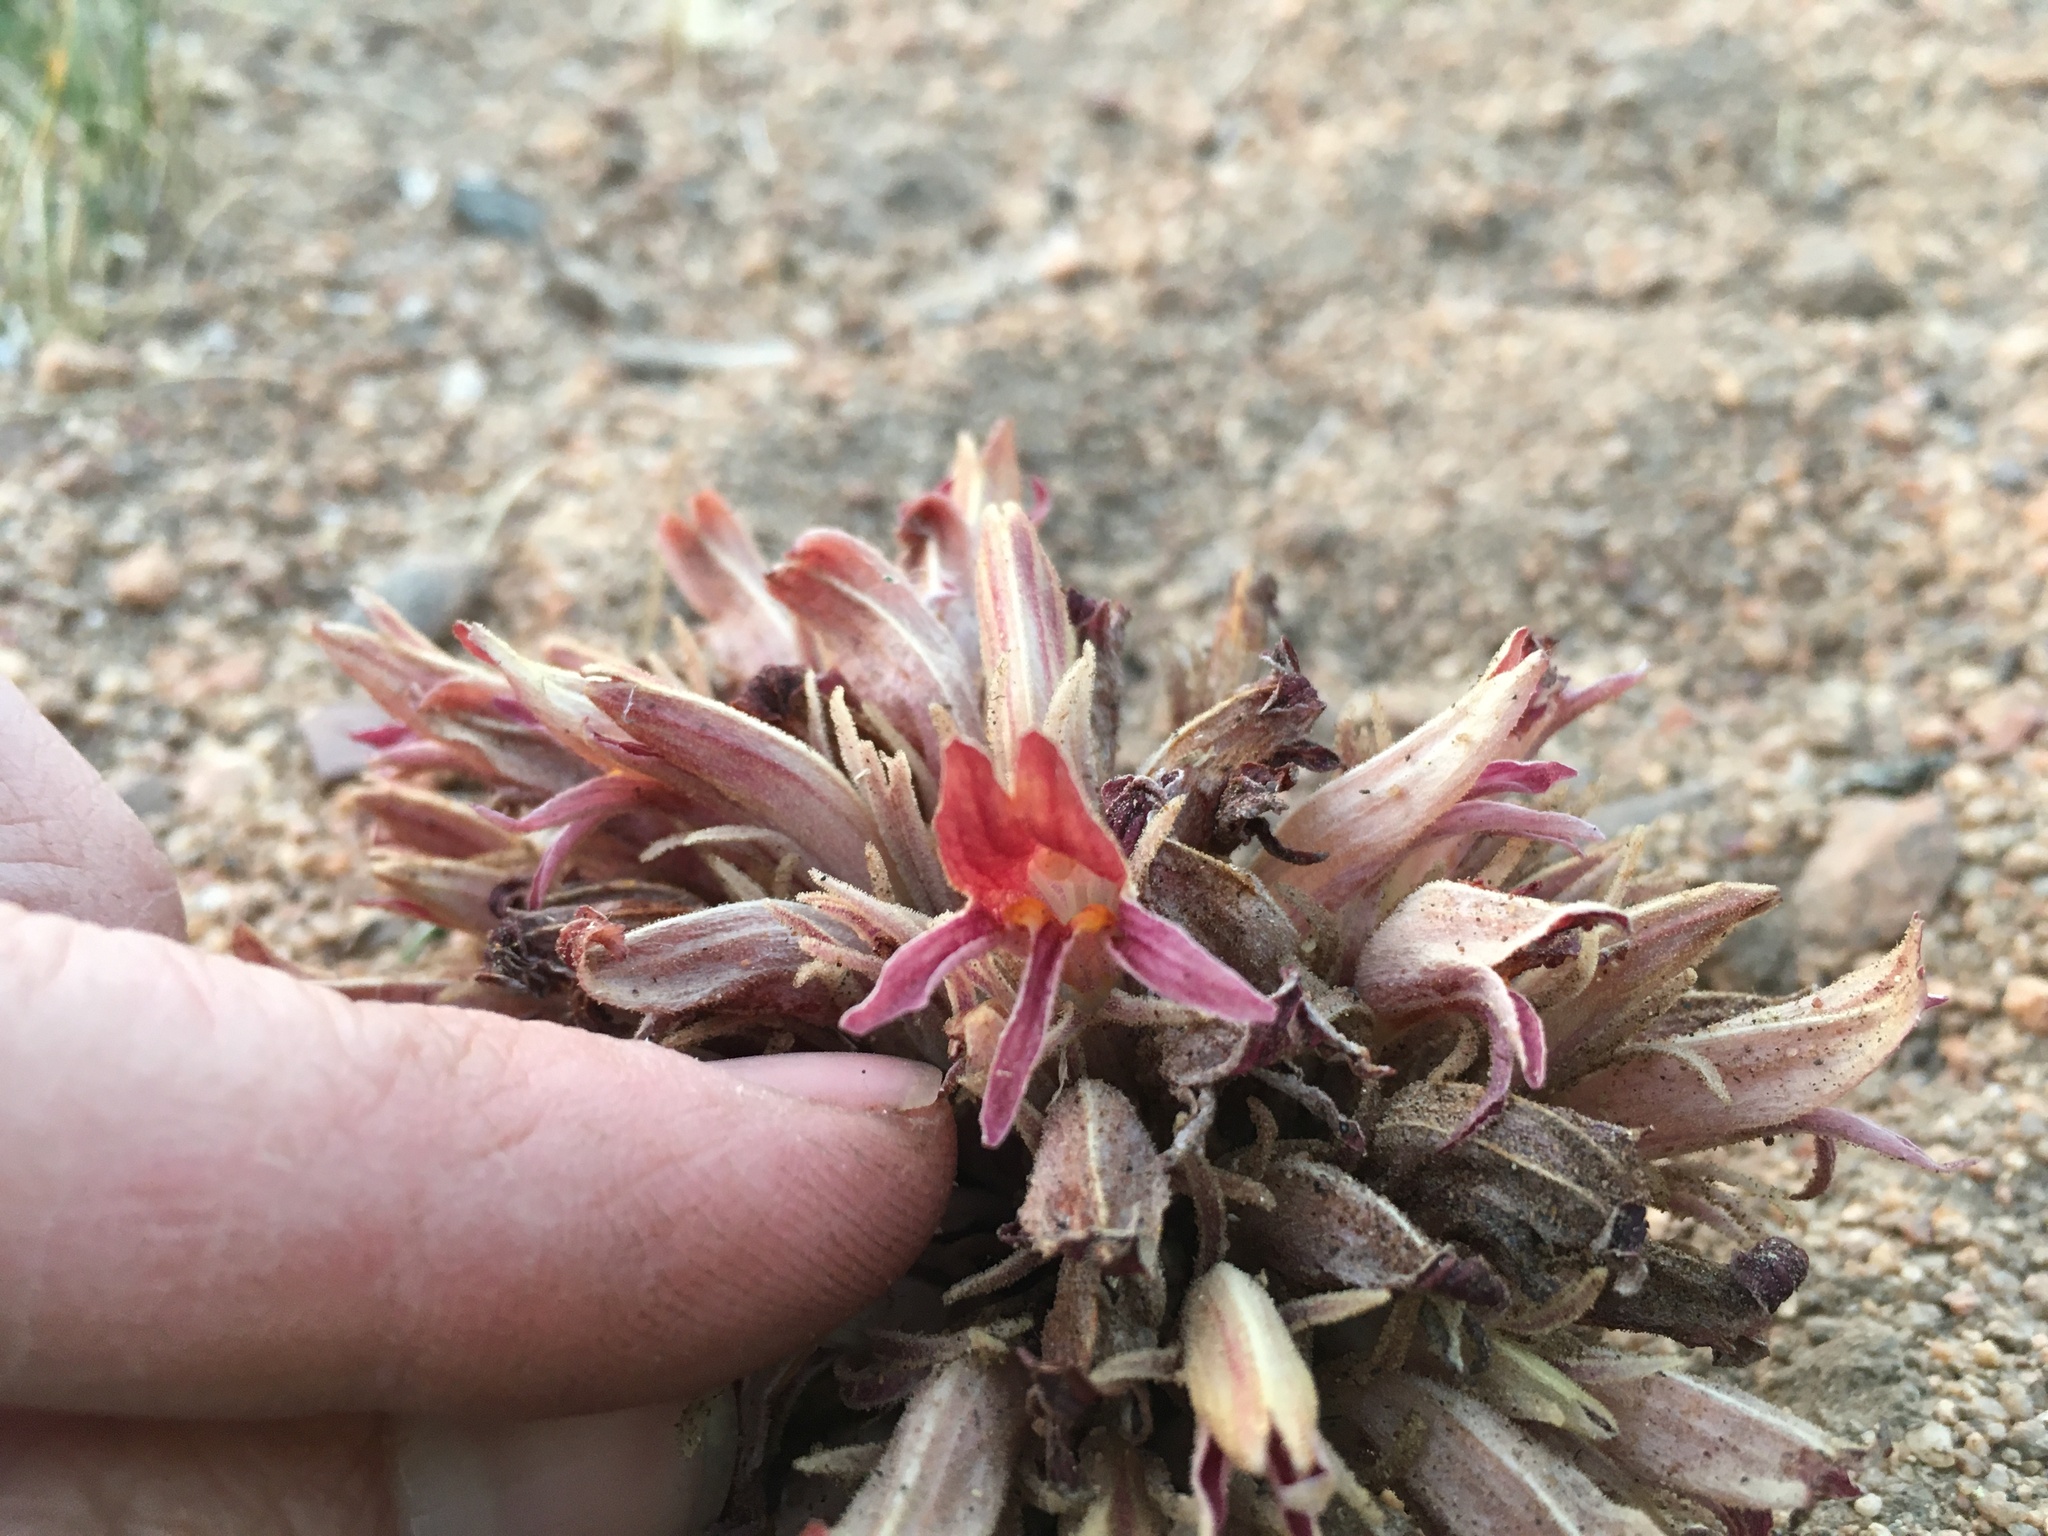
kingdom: Plantae
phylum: Tracheophyta
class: Magnoliopsida
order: Lamiales
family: Orobanchaceae
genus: Aphyllon
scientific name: Aphyllon corymbosum
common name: Flat-top broomrape
